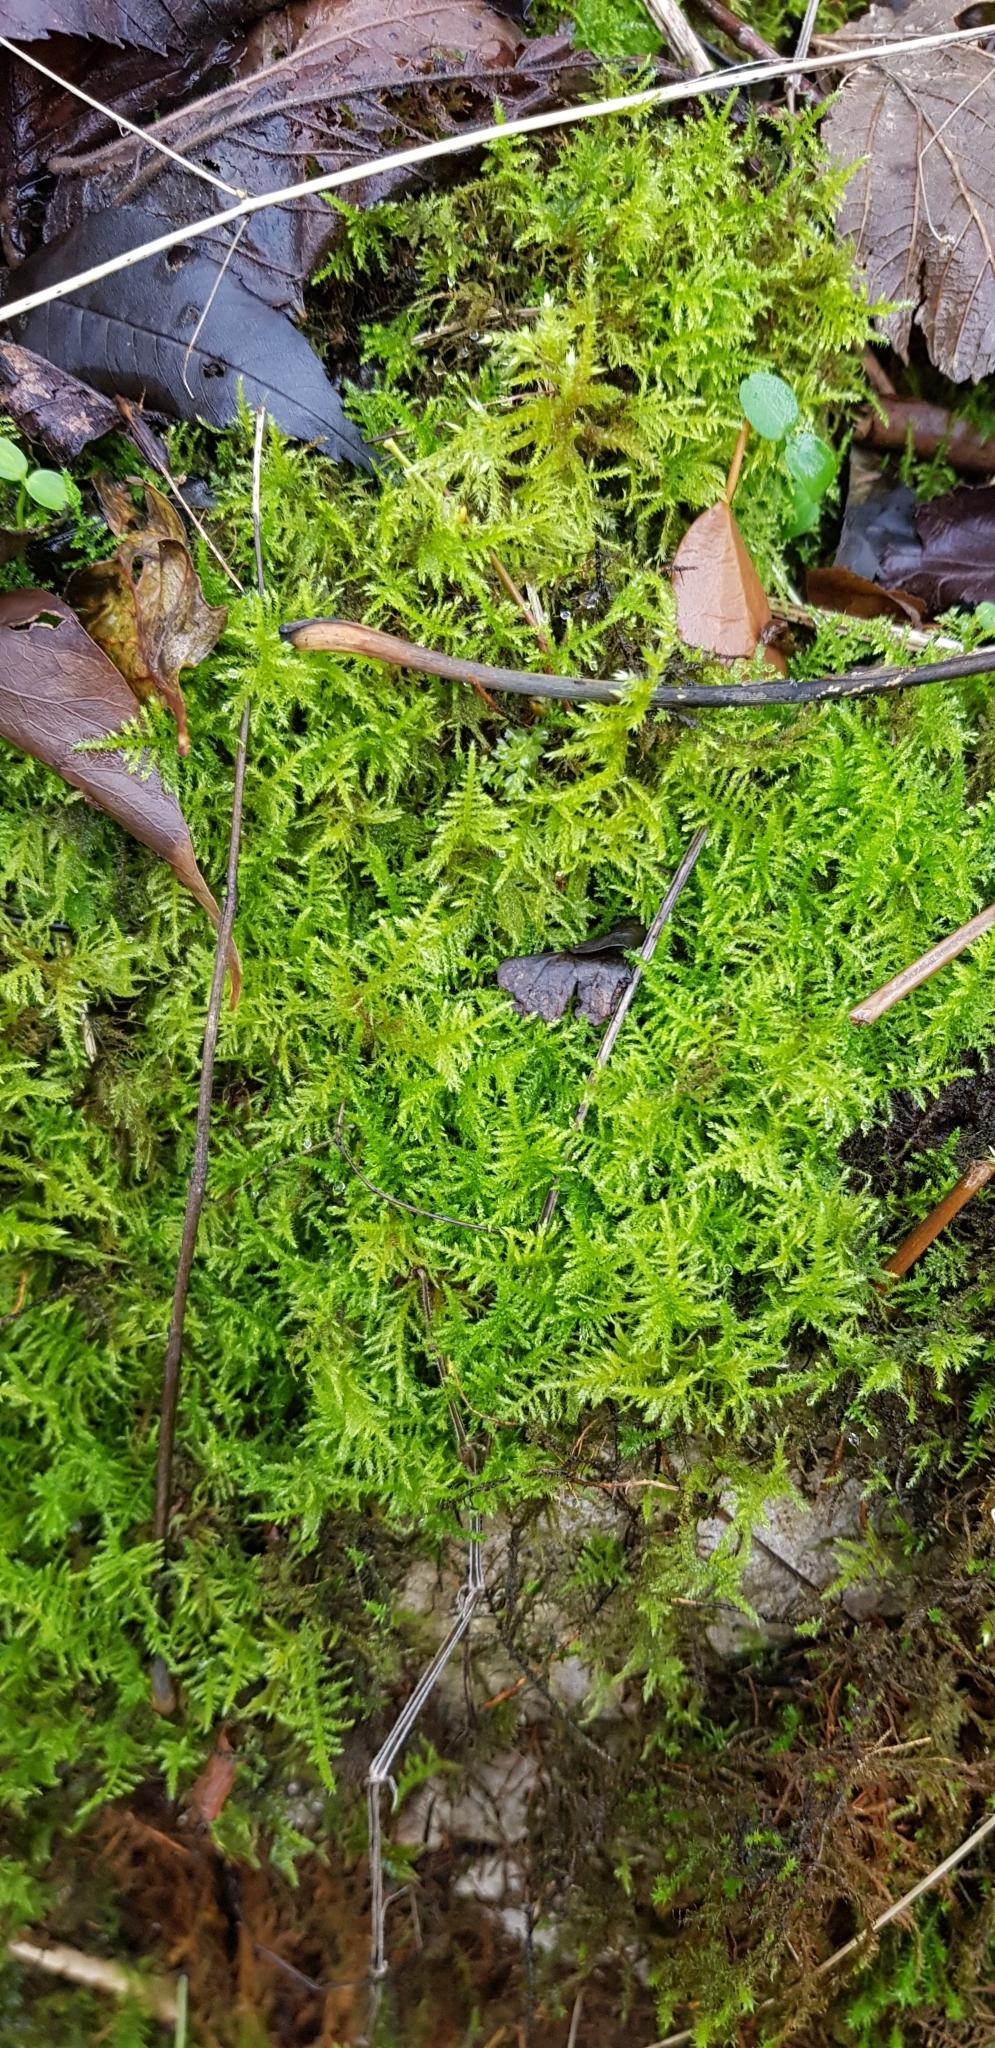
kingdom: Plantae
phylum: Bryophyta
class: Bryopsida
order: Hypnales
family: Brachytheciaceae
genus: Kindbergia
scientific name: Kindbergia praelonga
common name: Slender beaked moss
